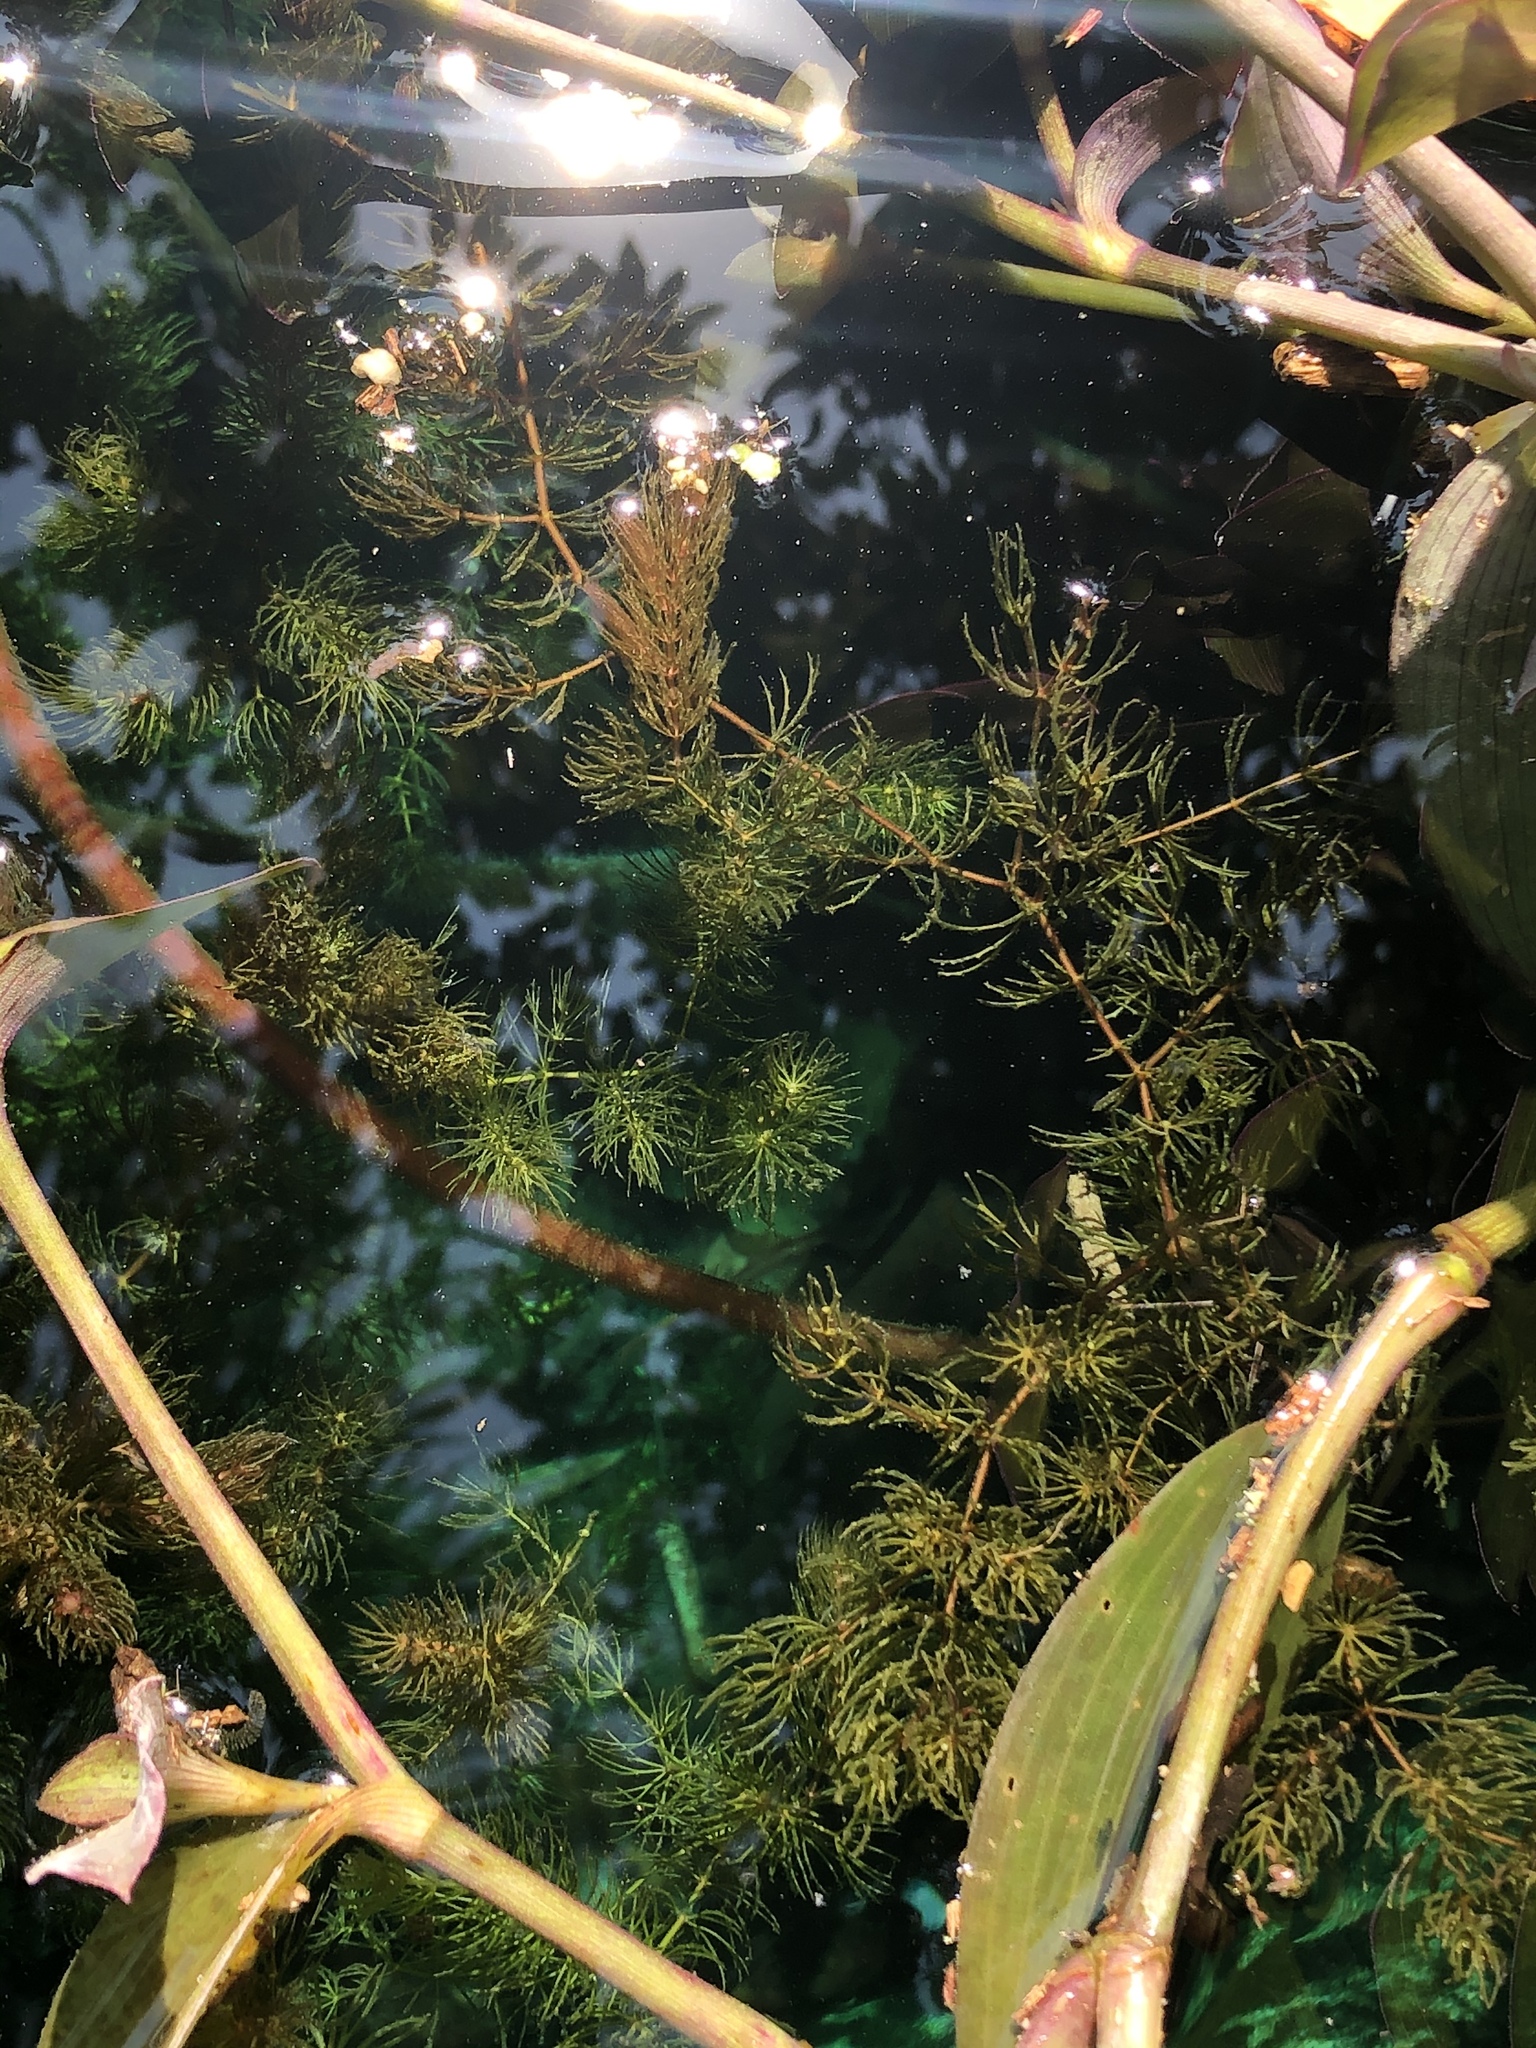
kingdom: Plantae
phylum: Tracheophyta
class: Magnoliopsida
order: Ceratophyllales
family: Ceratophyllaceae
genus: Ceratophyllum
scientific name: Ceratophyllum demersum
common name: Rigid hornwort
